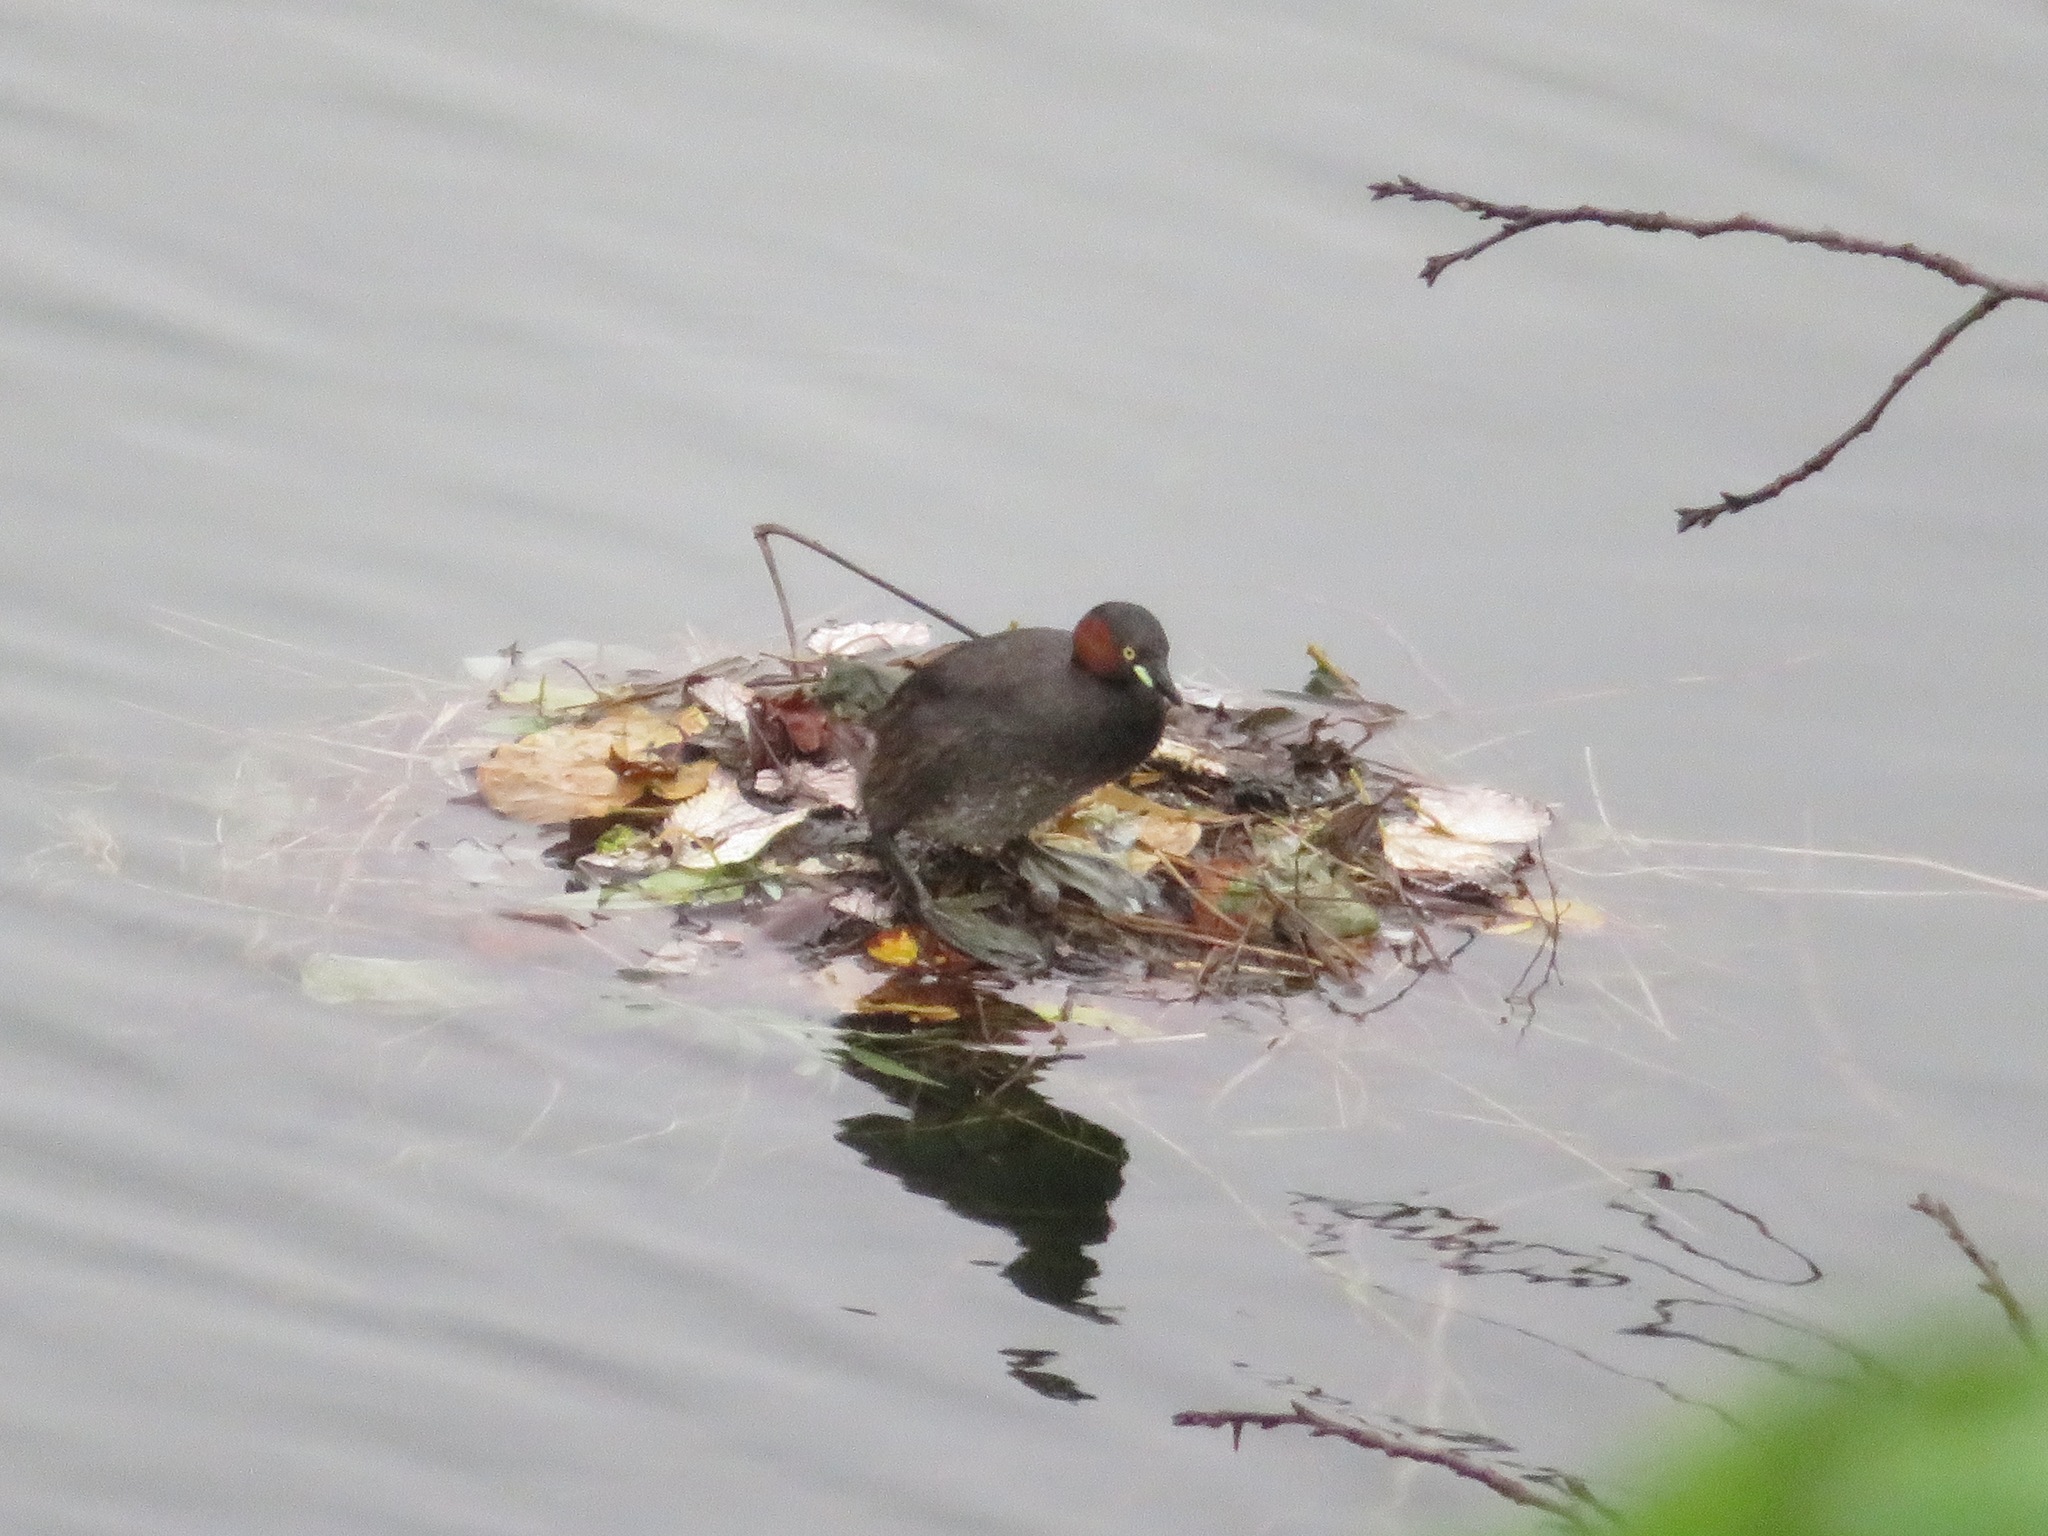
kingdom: Animalia
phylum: Chordata
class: Aves
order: Podicipediformes
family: Podicipedidae
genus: Tachybaptus
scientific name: Tachybaptus ruficollis
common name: Little grebe
